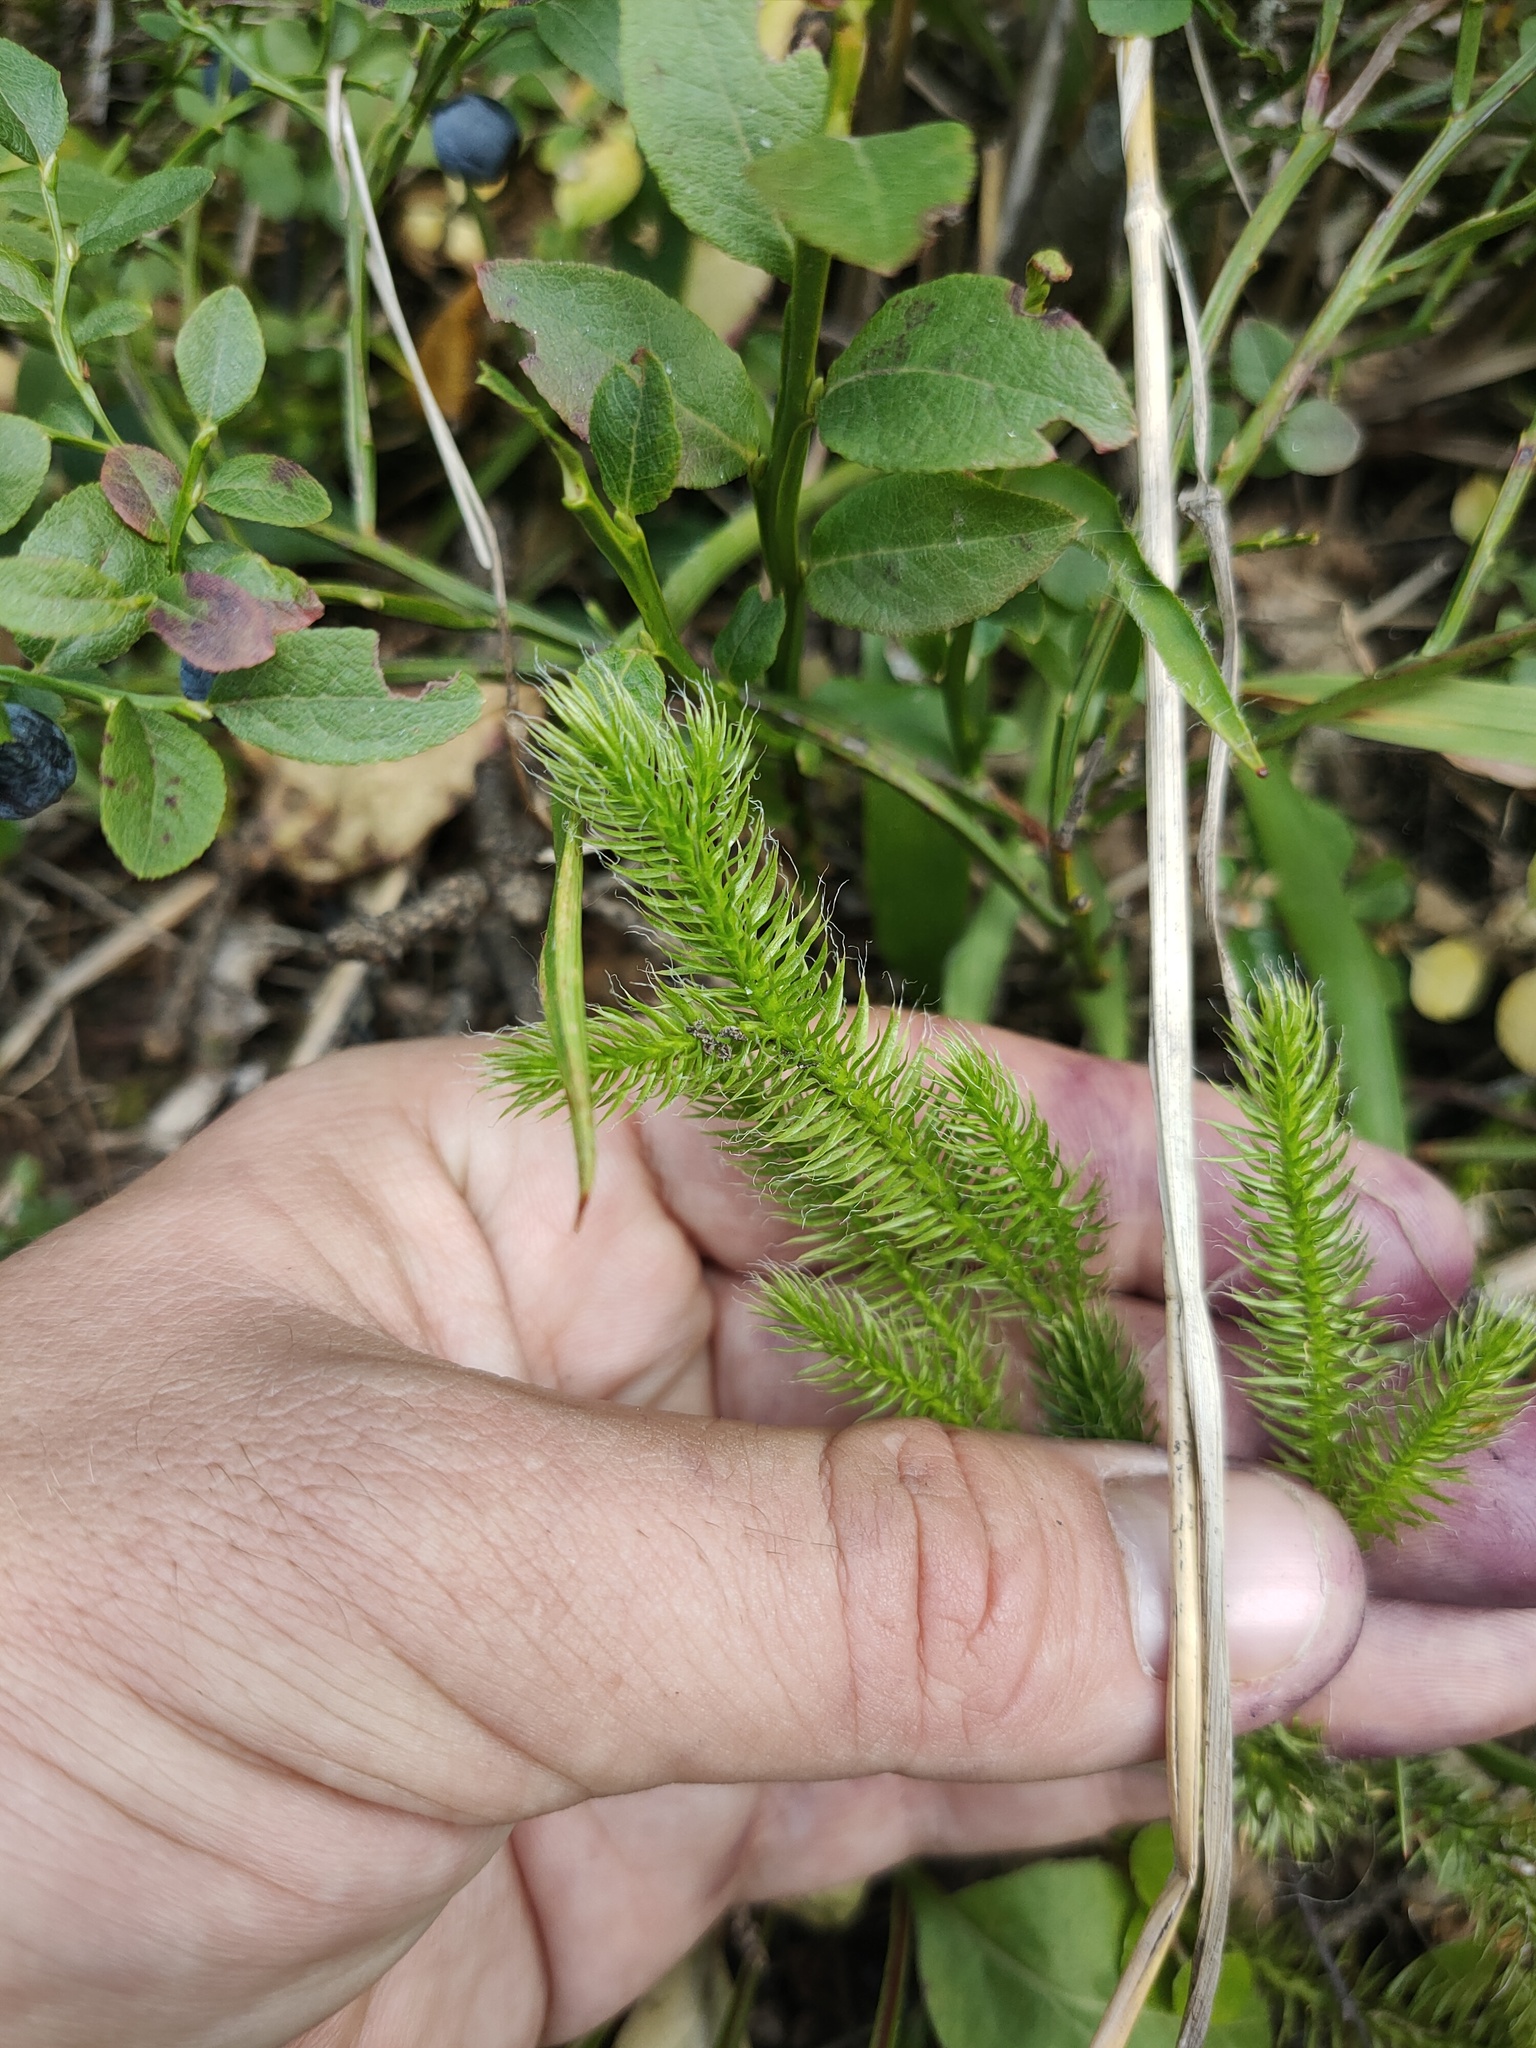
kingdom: Plantae
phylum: Tracheophyta
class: Lycopodiopsida
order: Lycopodiales
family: Lycopodiaceae
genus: Lycopodium
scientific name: Lycopodium clavatum
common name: Stag's-horn clubmoss
